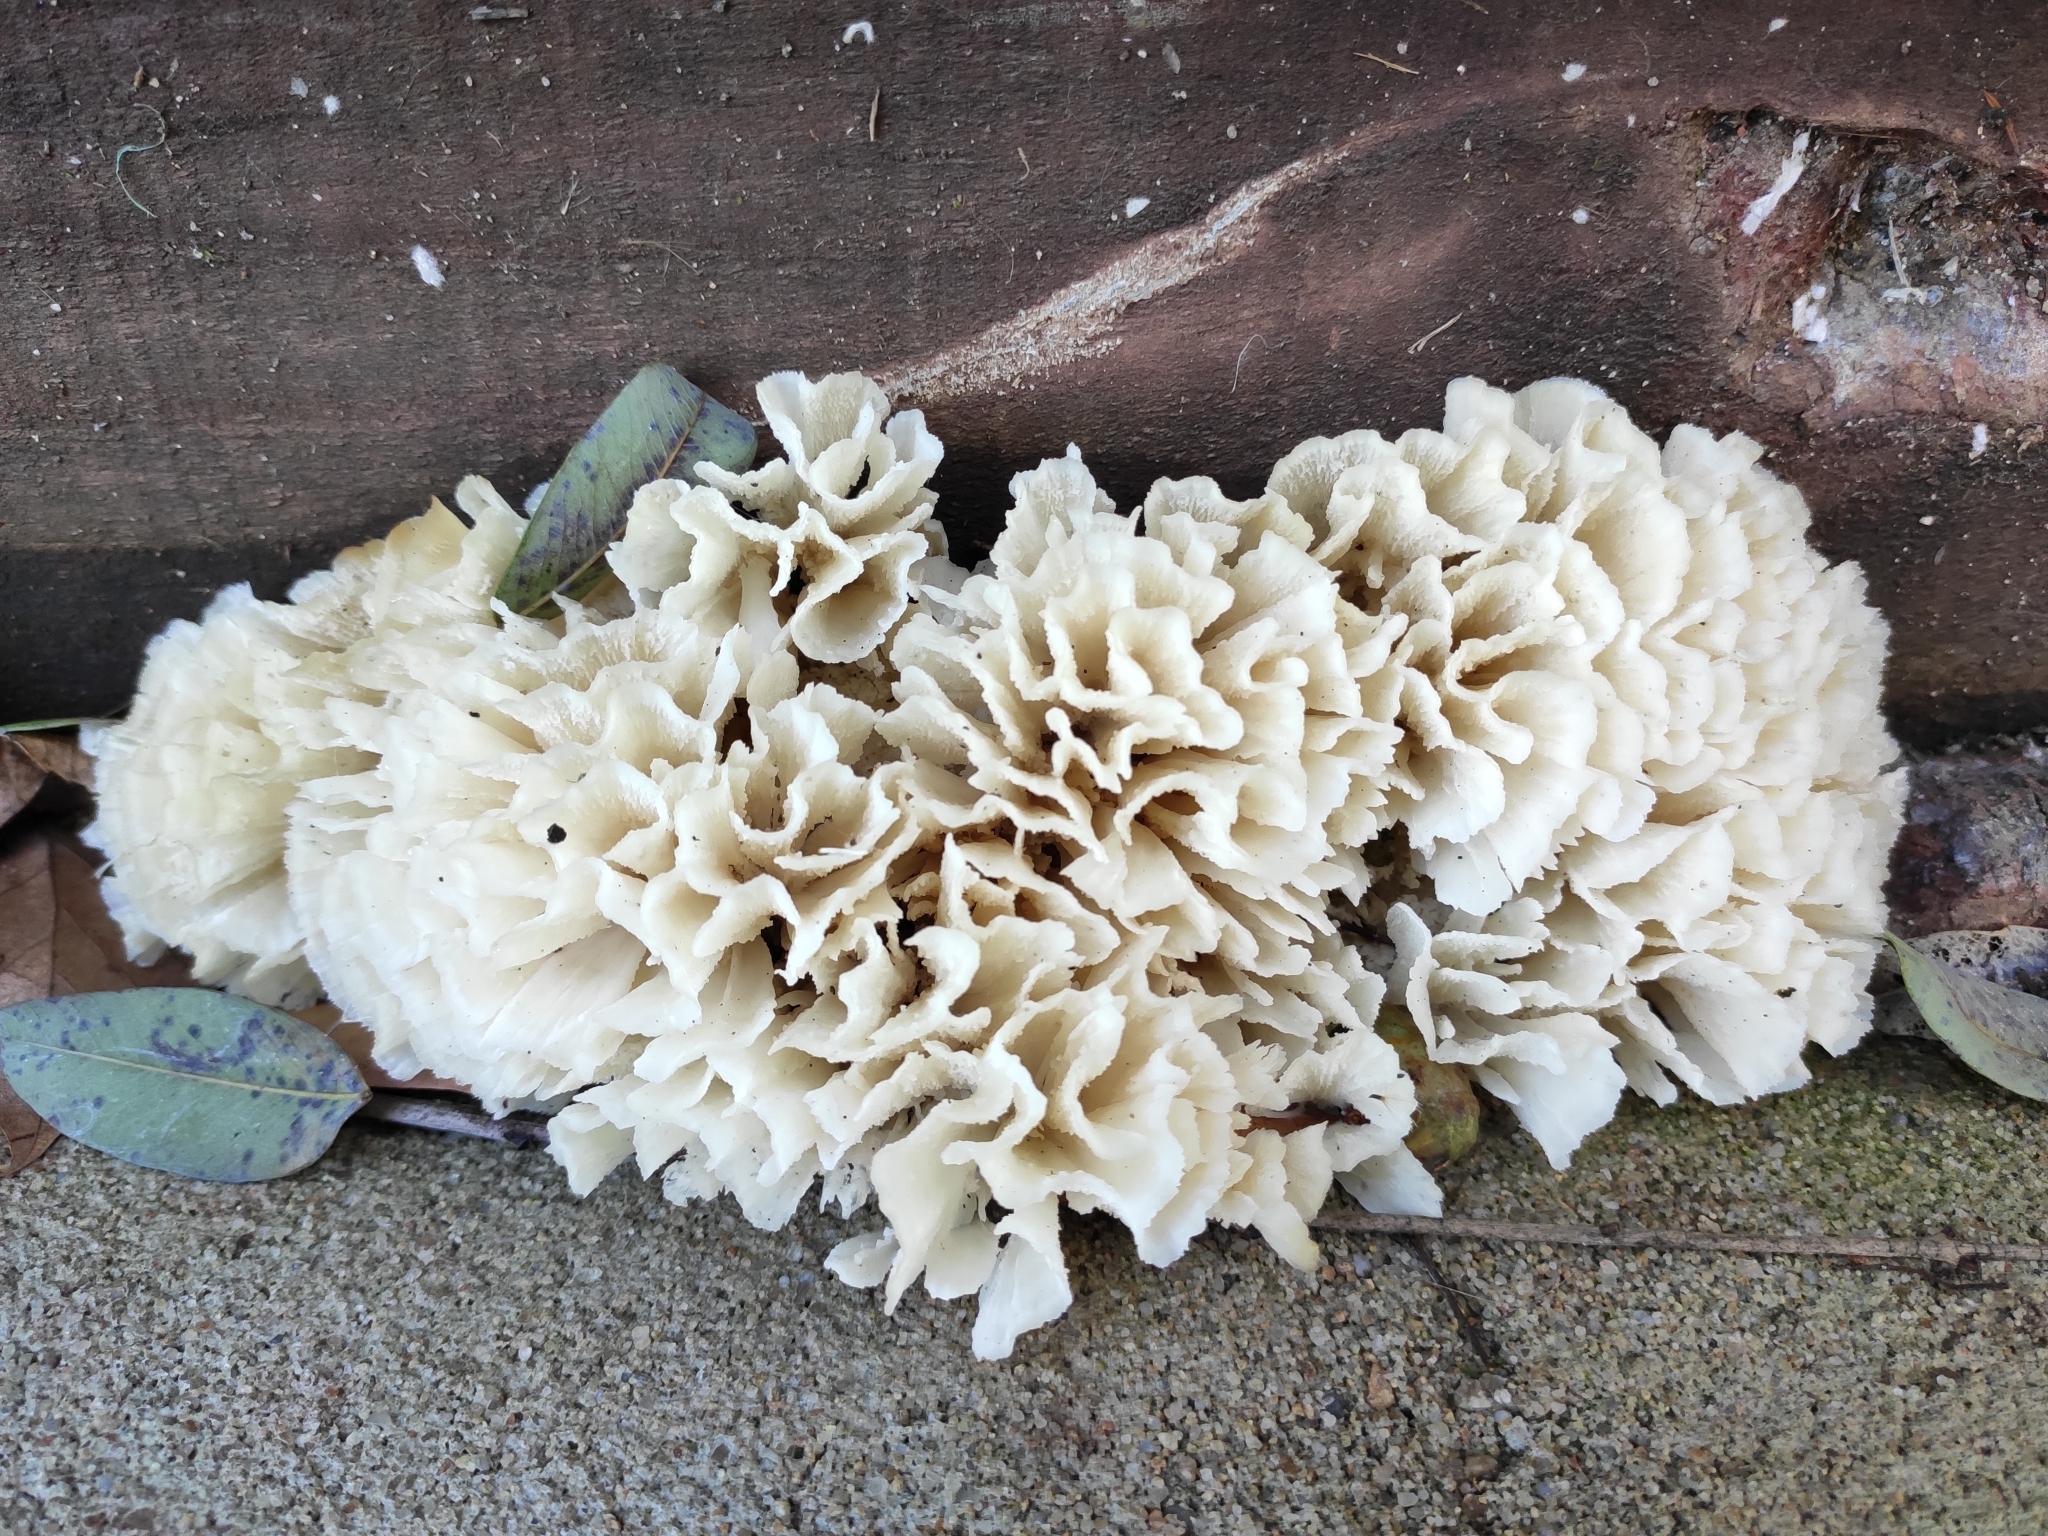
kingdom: Fungi
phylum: Basidiomycota
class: Agaricomycetes
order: Polyporales
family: Irpicaceae
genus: Irpex
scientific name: Irpex rosettiformis
